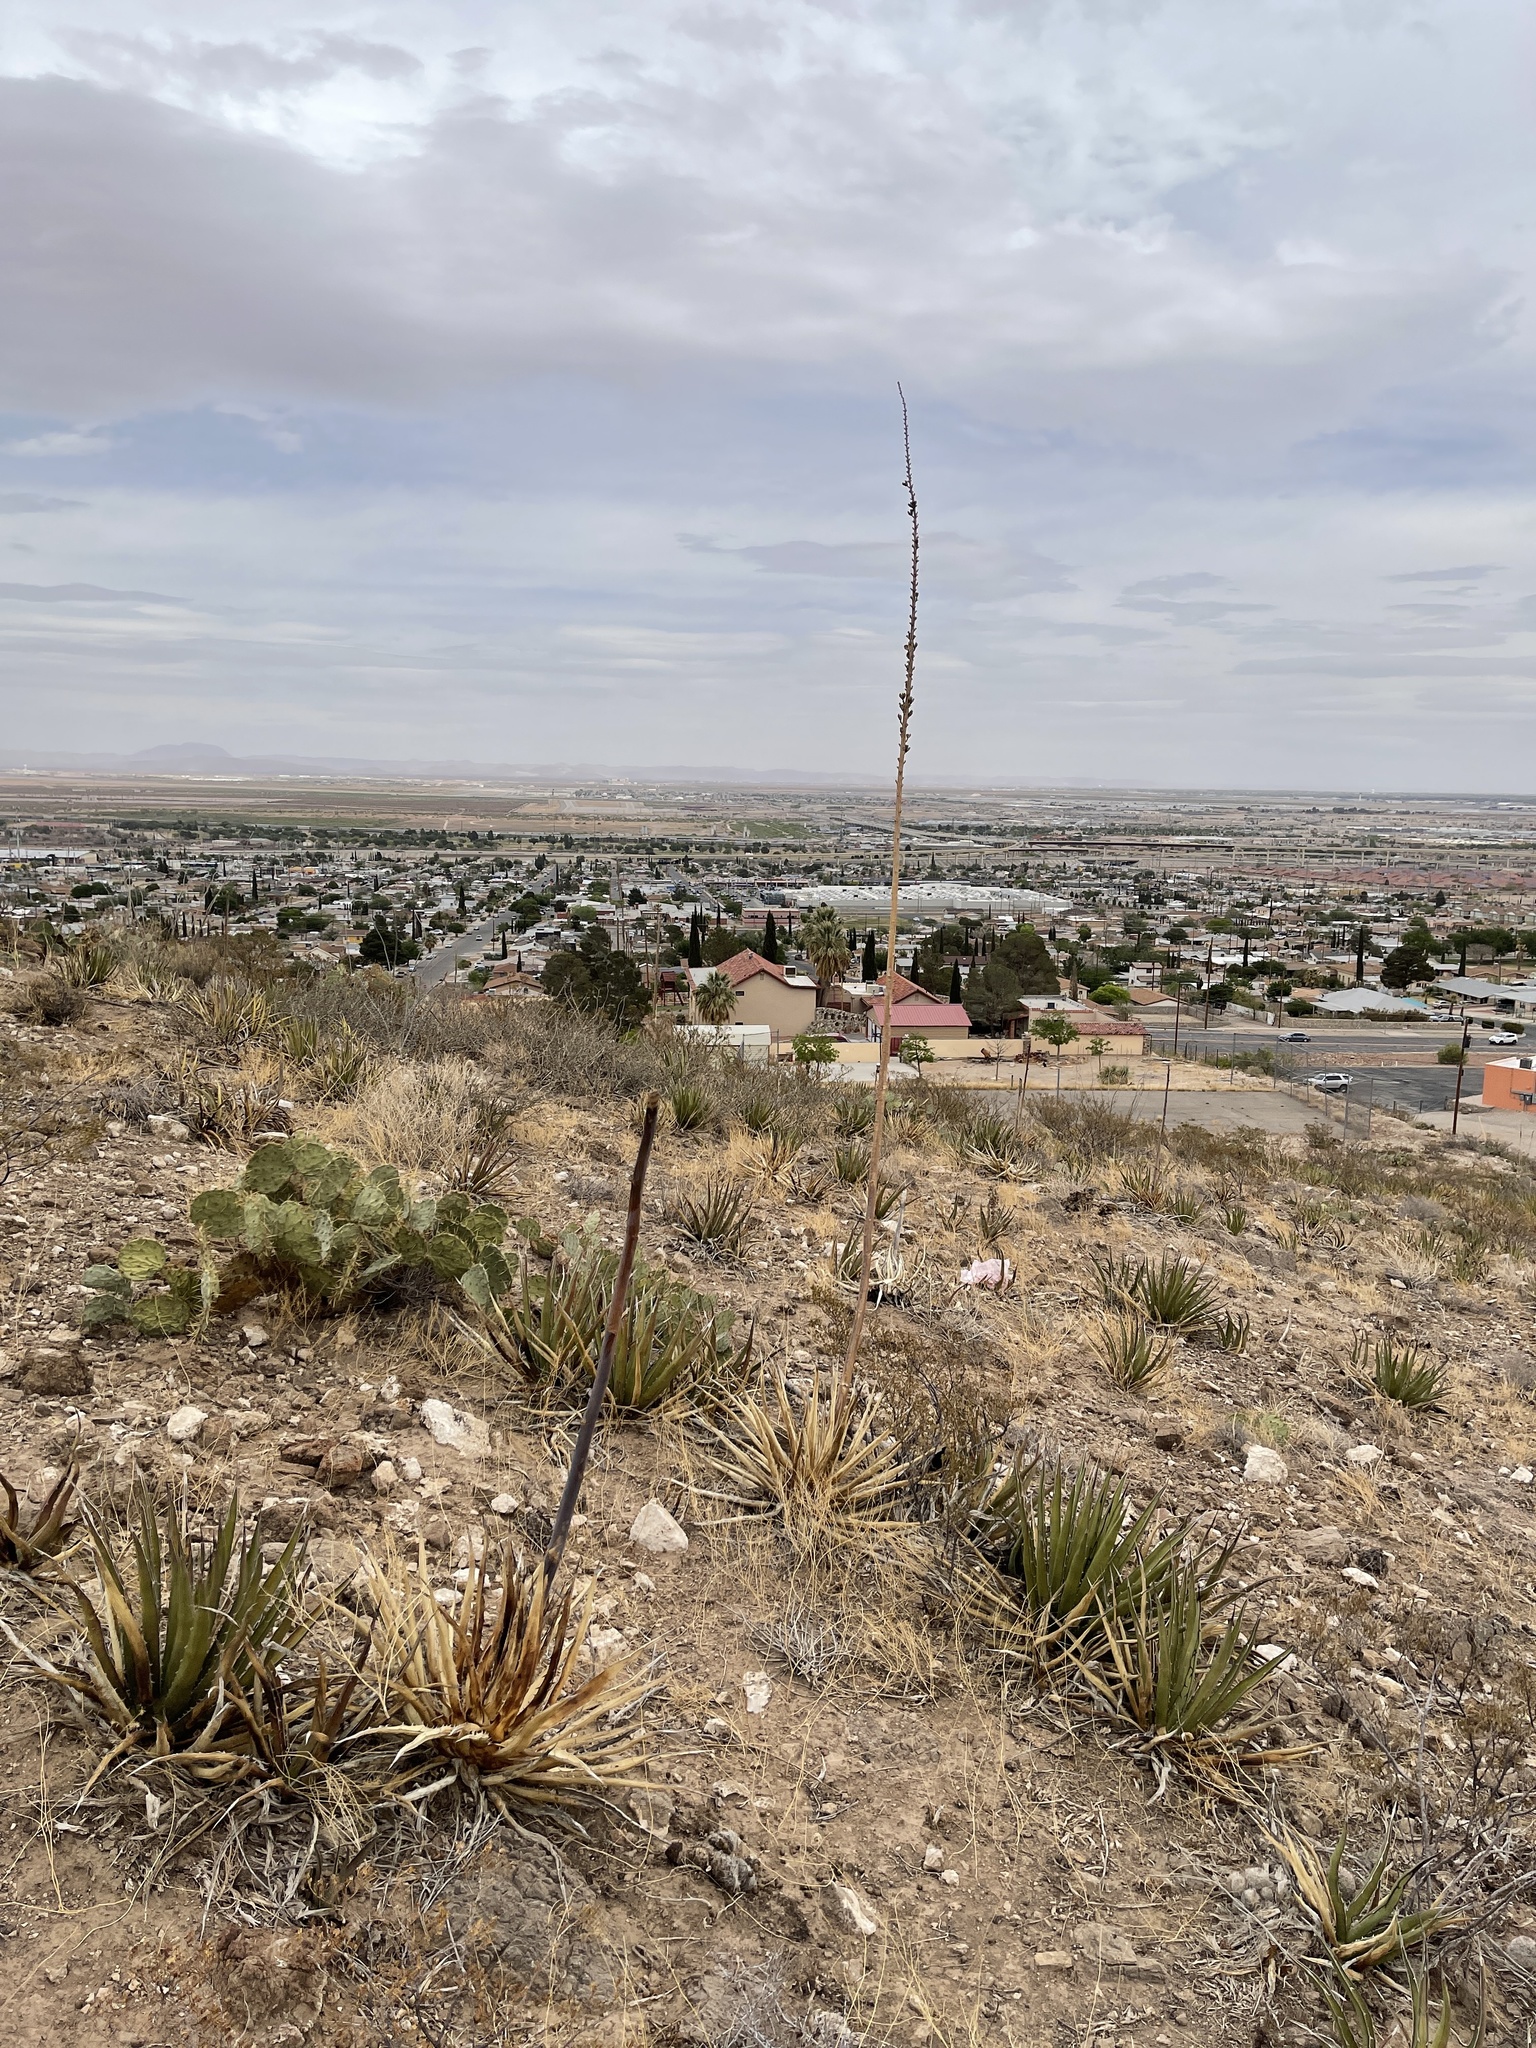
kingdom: Plantae
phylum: Tracheophyta
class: Liliopsida
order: Asparagales
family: Asparagaceae
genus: Agave
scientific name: Agave lechuguilla
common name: Lecheguilla agave
